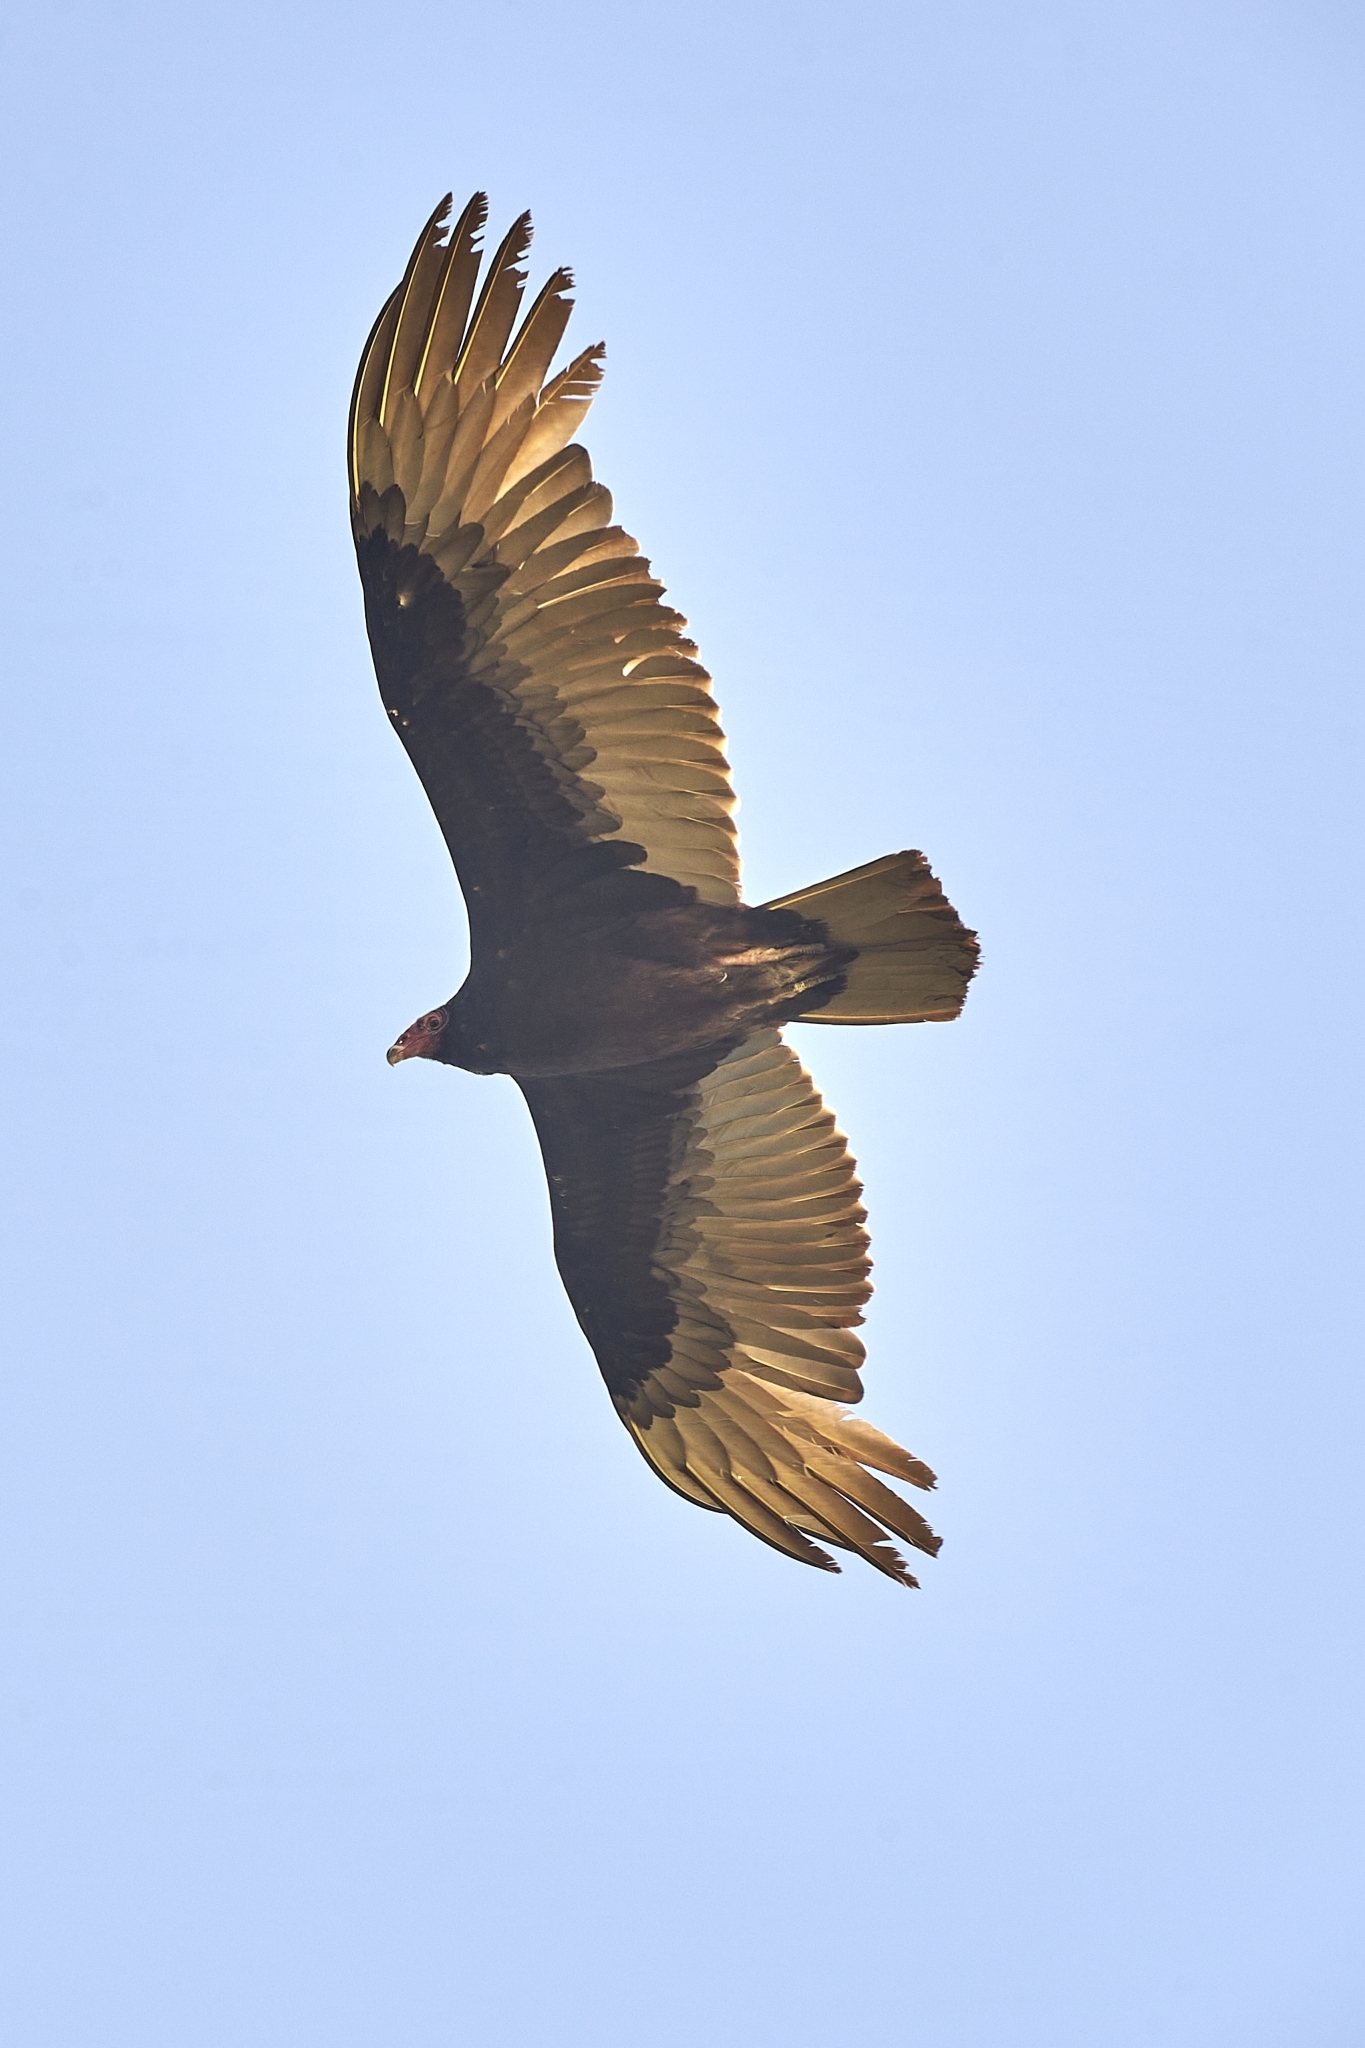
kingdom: Animalia
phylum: Chordata
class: Aves
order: Accipitriformes
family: Cathartidae
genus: Cathartes
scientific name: Cathartes aura
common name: Turkey vulture
